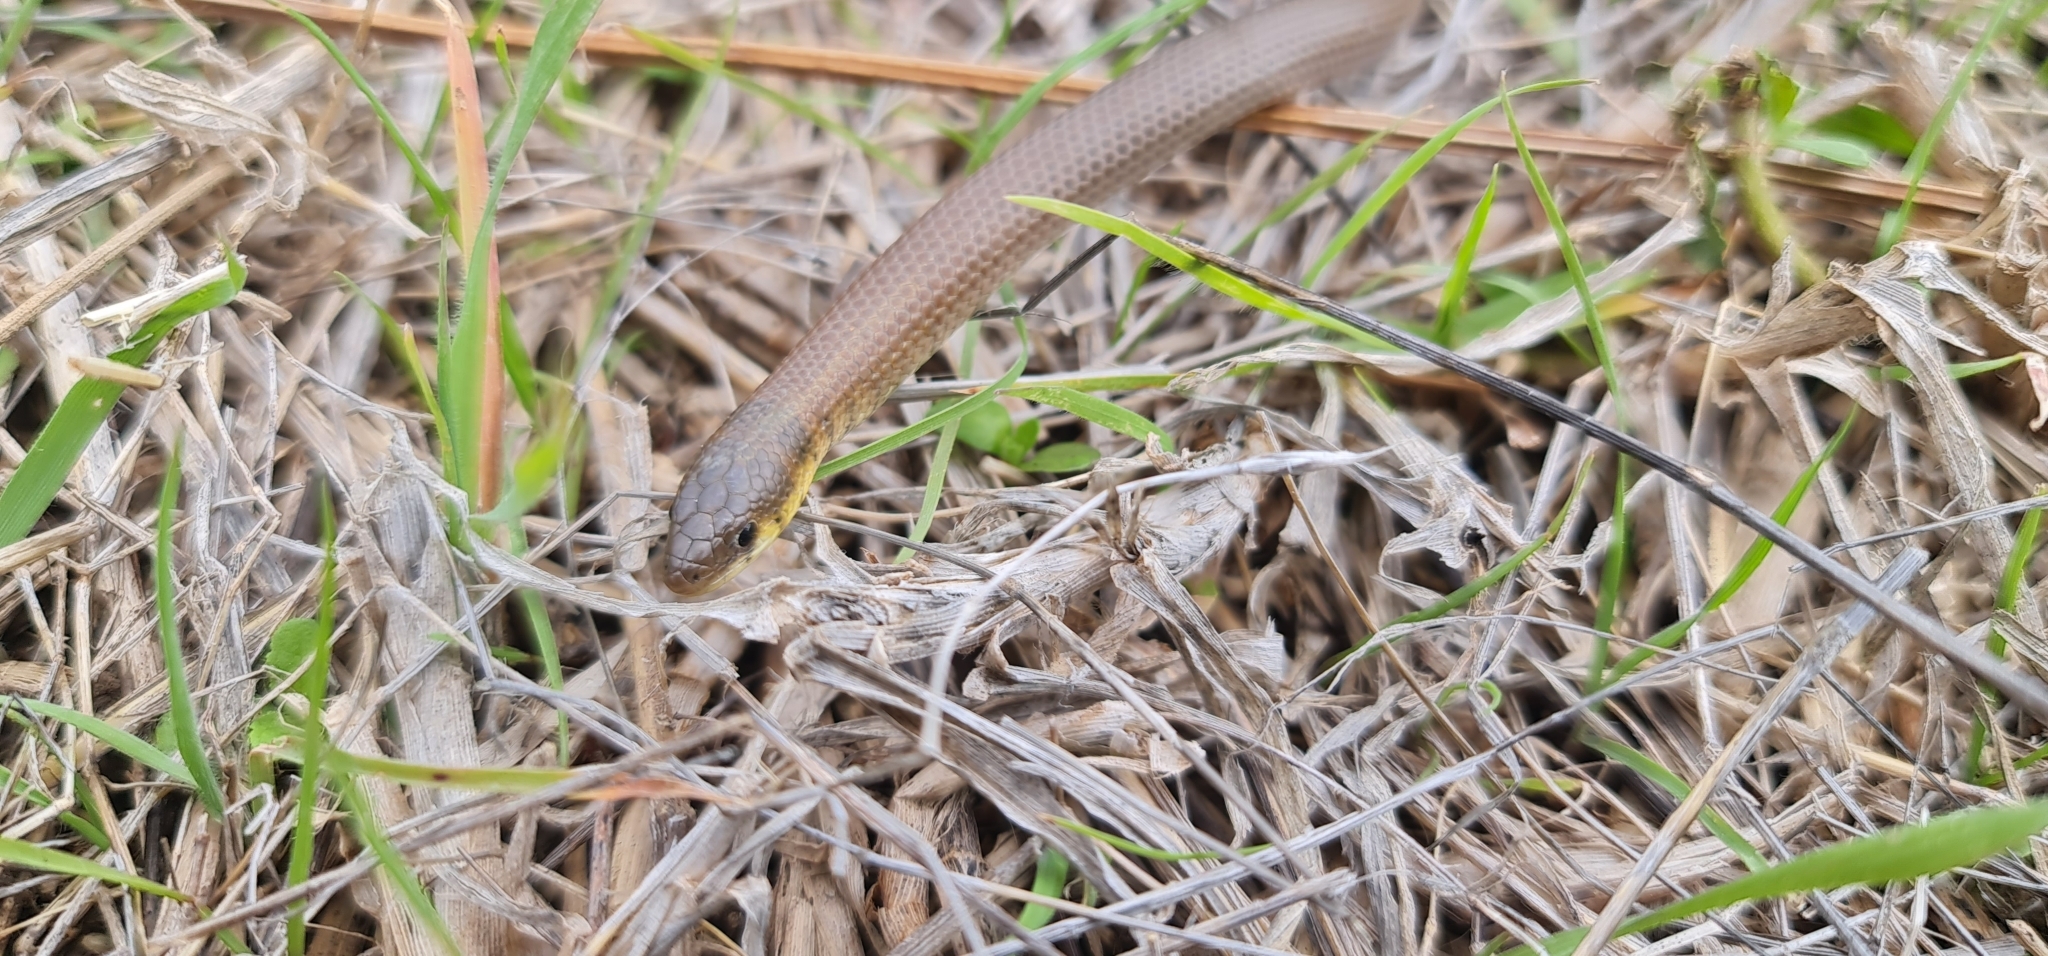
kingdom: Animalia
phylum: Chordata
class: Squamata
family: Pygopodidae
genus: Delma
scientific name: Delma molleri
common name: Gulfs delma
